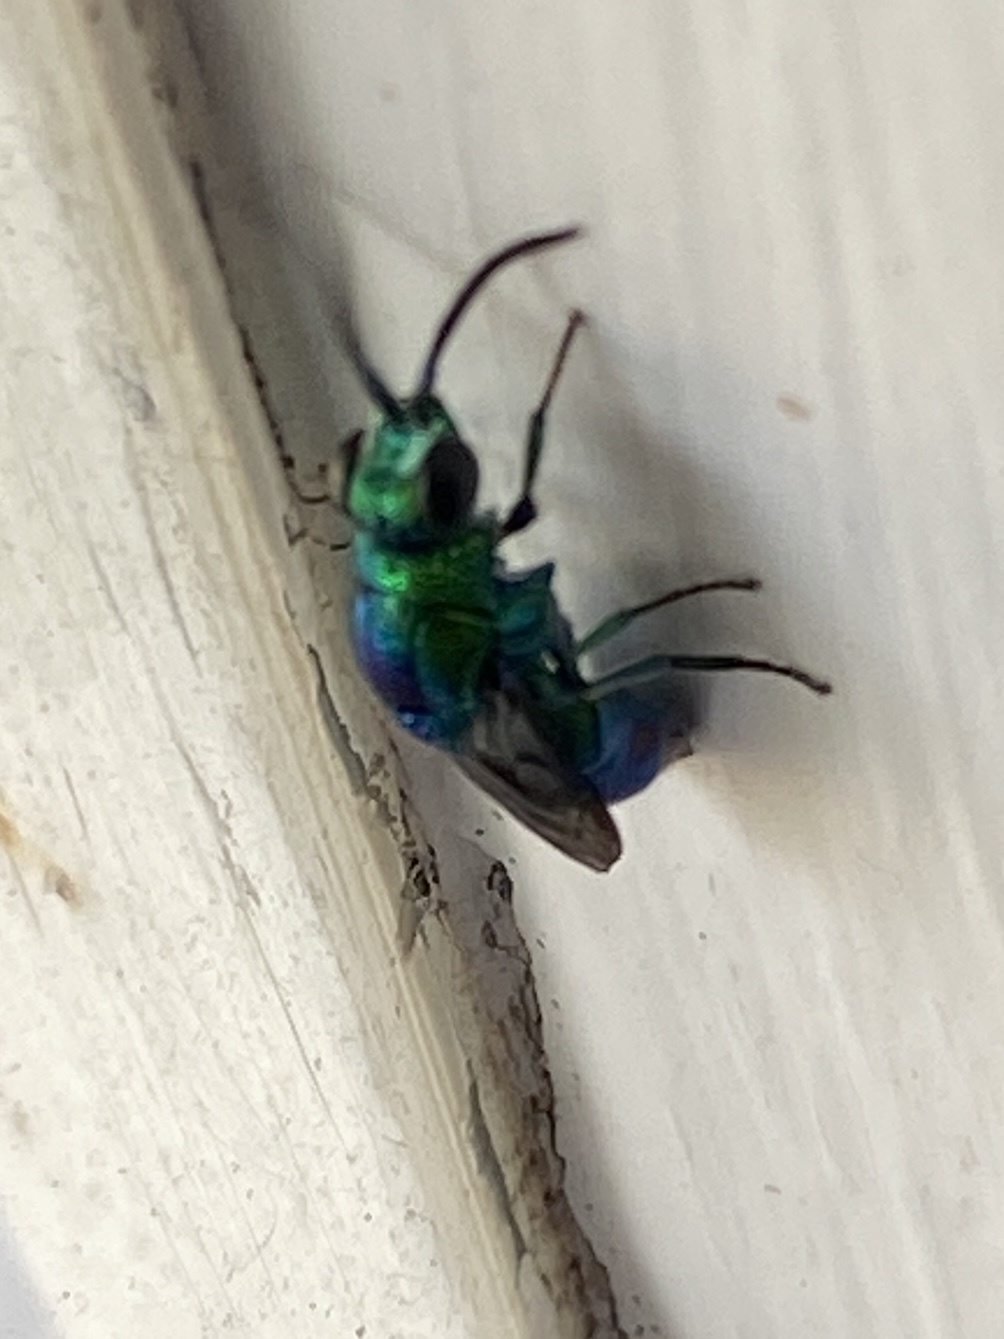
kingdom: Animalia
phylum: Arthropoda
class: Insecta
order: Hymenoptera
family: Chrysididae
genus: Chrysis
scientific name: Chrysis lincea
